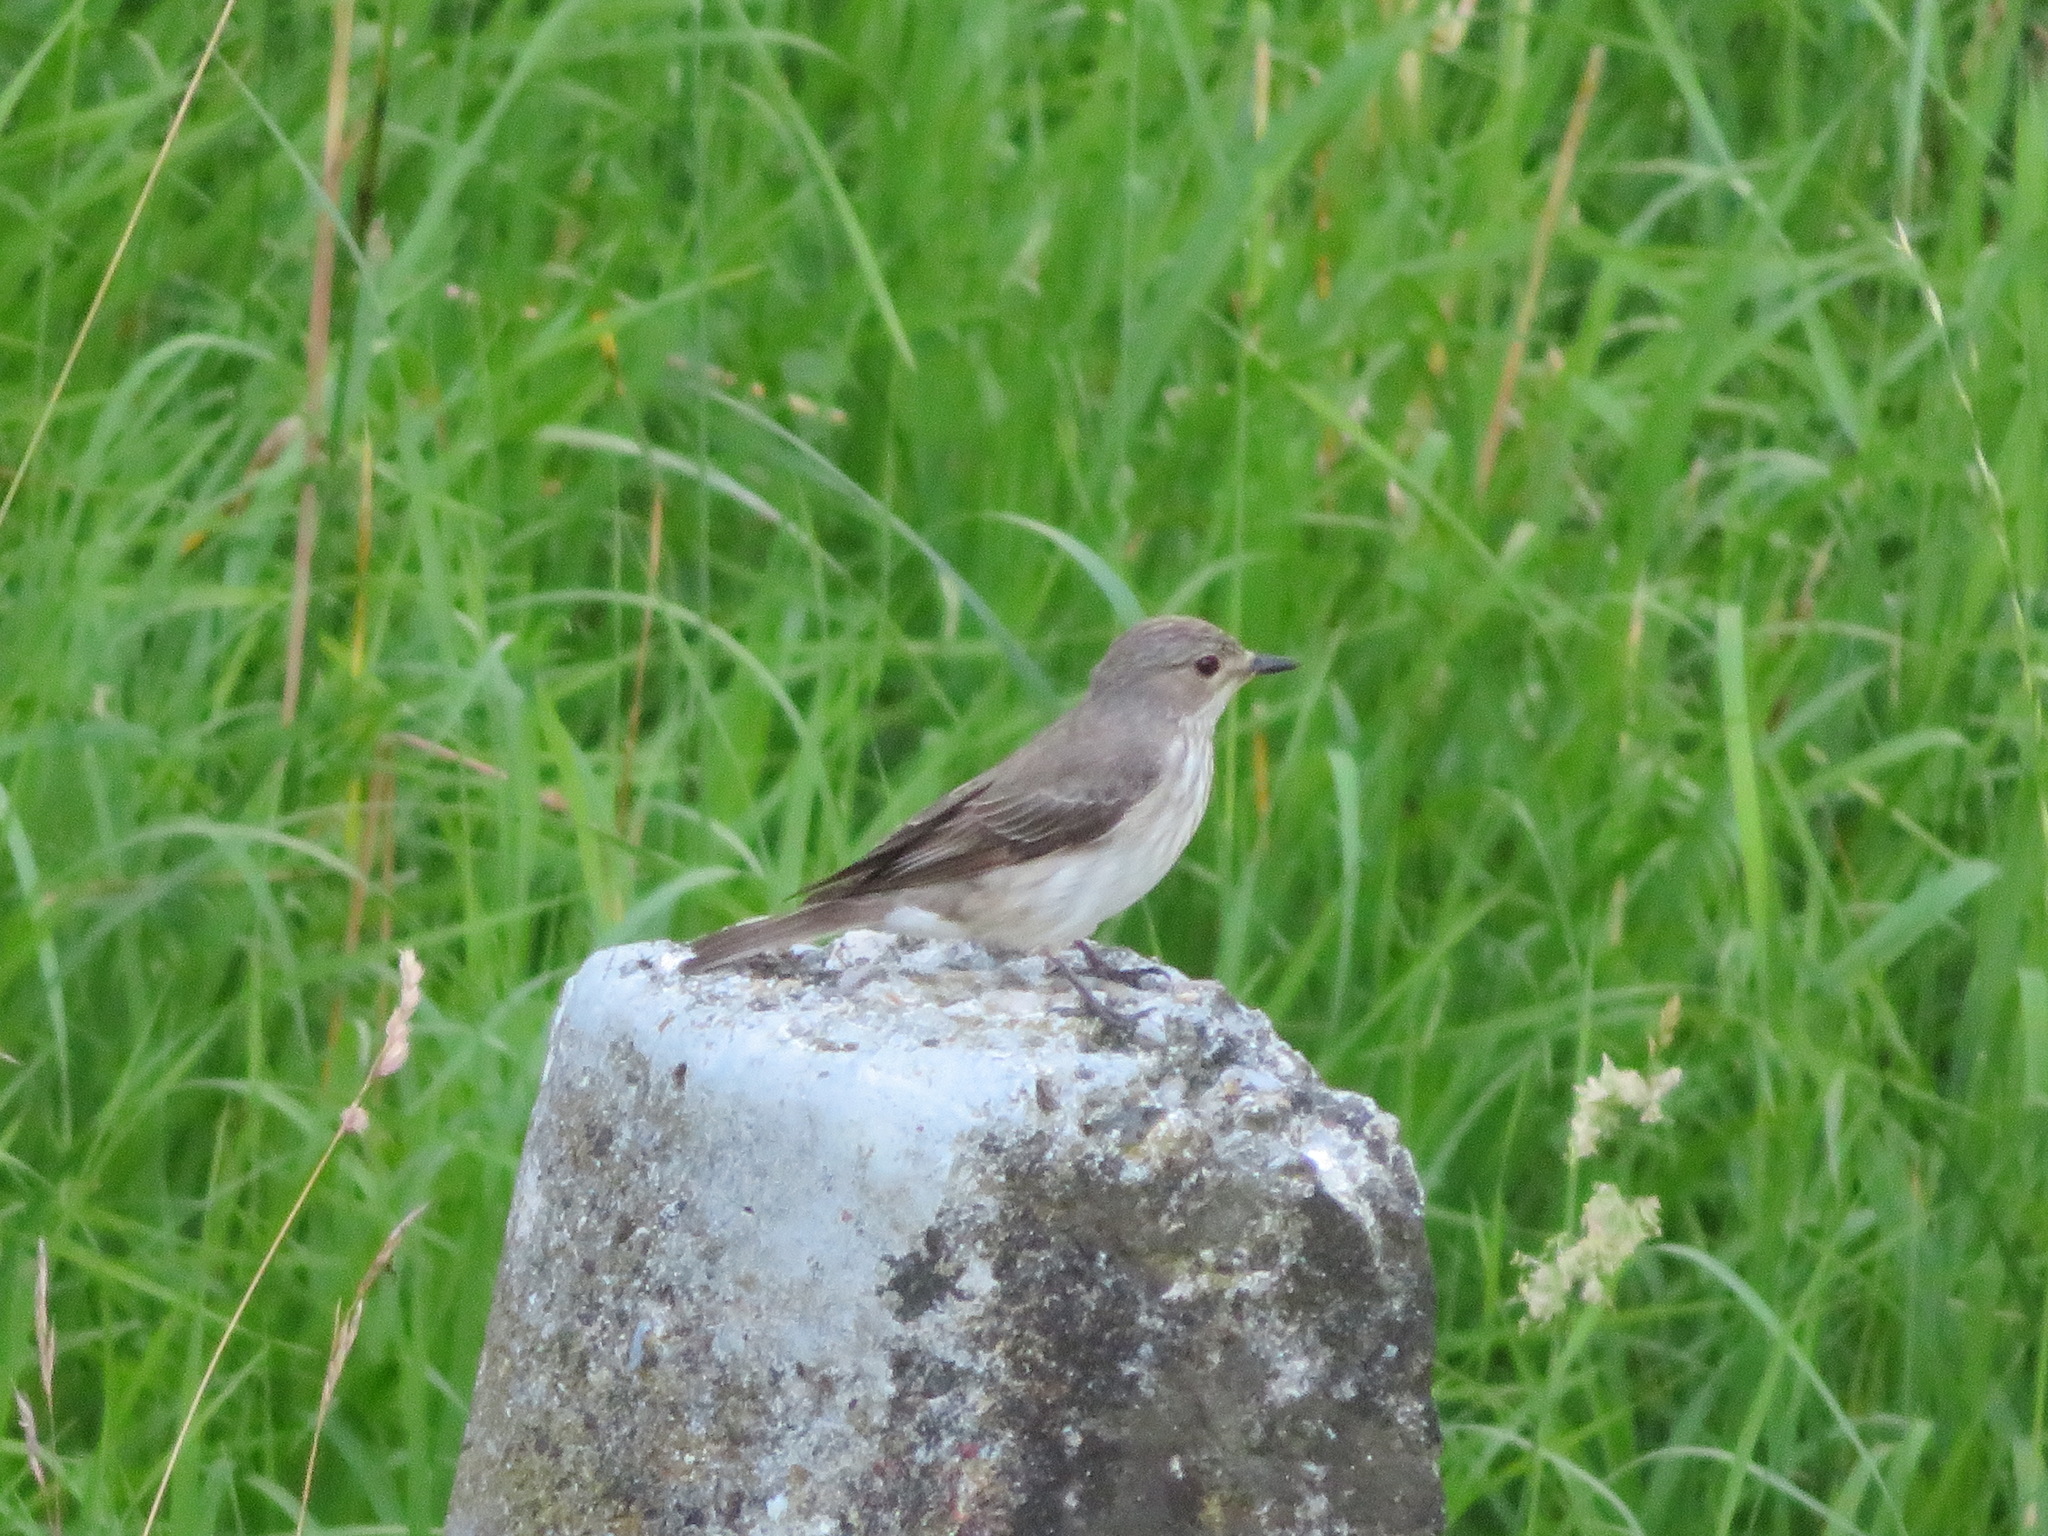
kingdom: Animalia
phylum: Chordata
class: Aves
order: Passeriformes
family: Muscicapidae
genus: Muscicapa
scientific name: Muscicapa striata
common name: Spotted flycatcher
